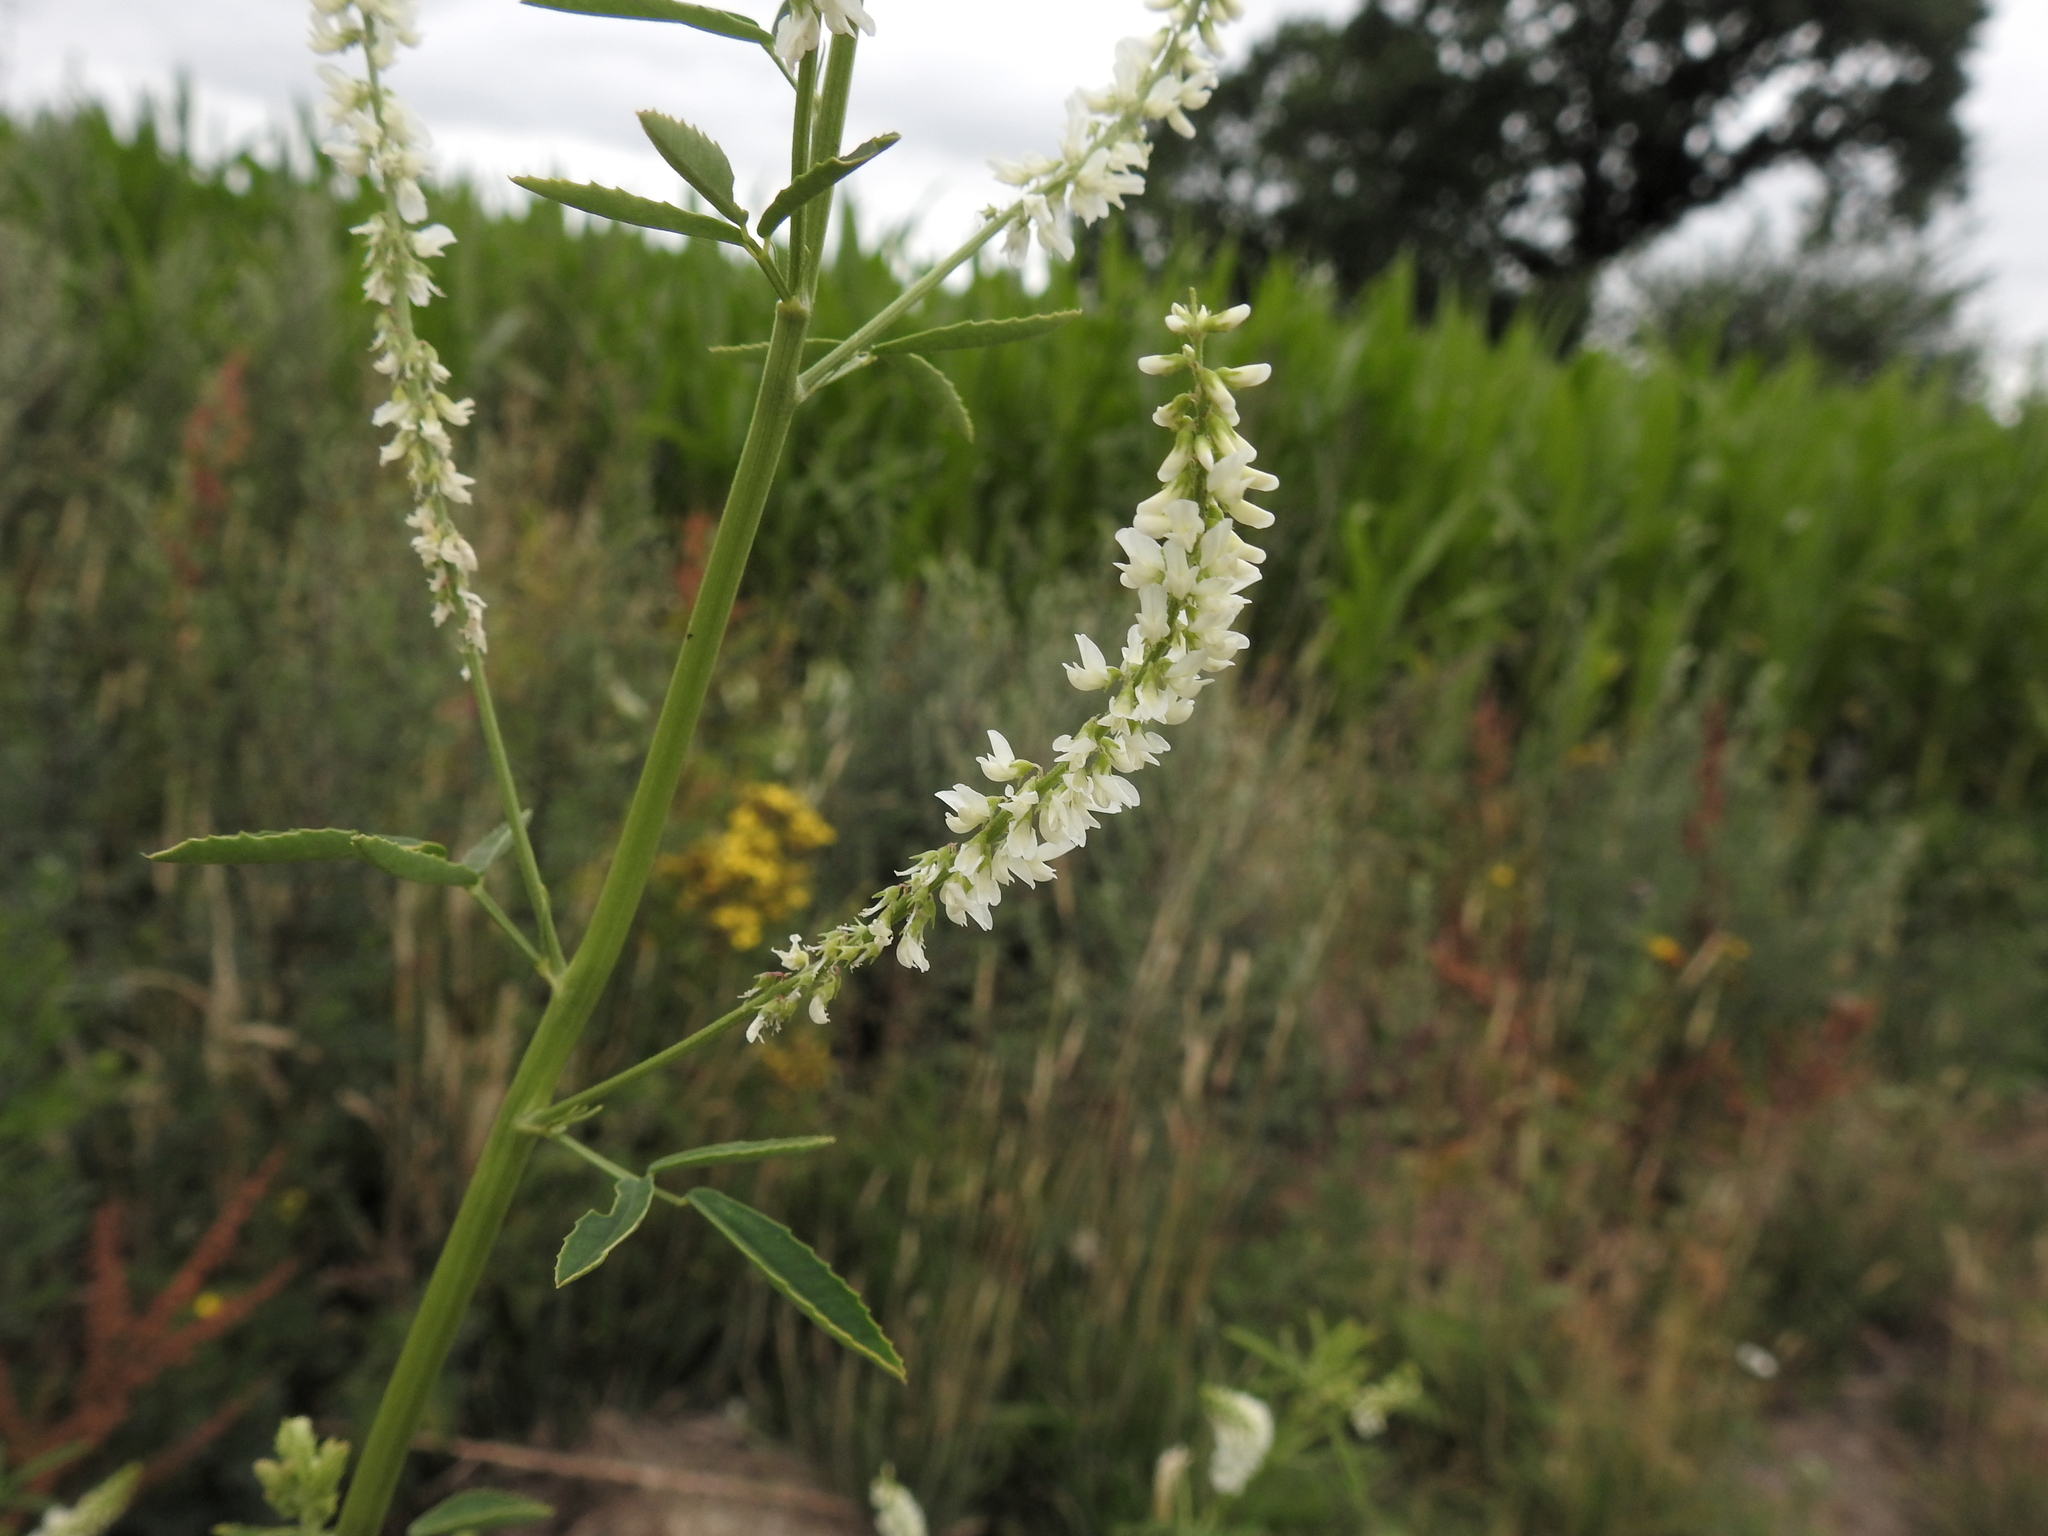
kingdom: Plantae
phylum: Tracheophyta
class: Magnoliopsida
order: Fabales
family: Fabaceae
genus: Melilotus
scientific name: Melilotus albus
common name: White melilot
